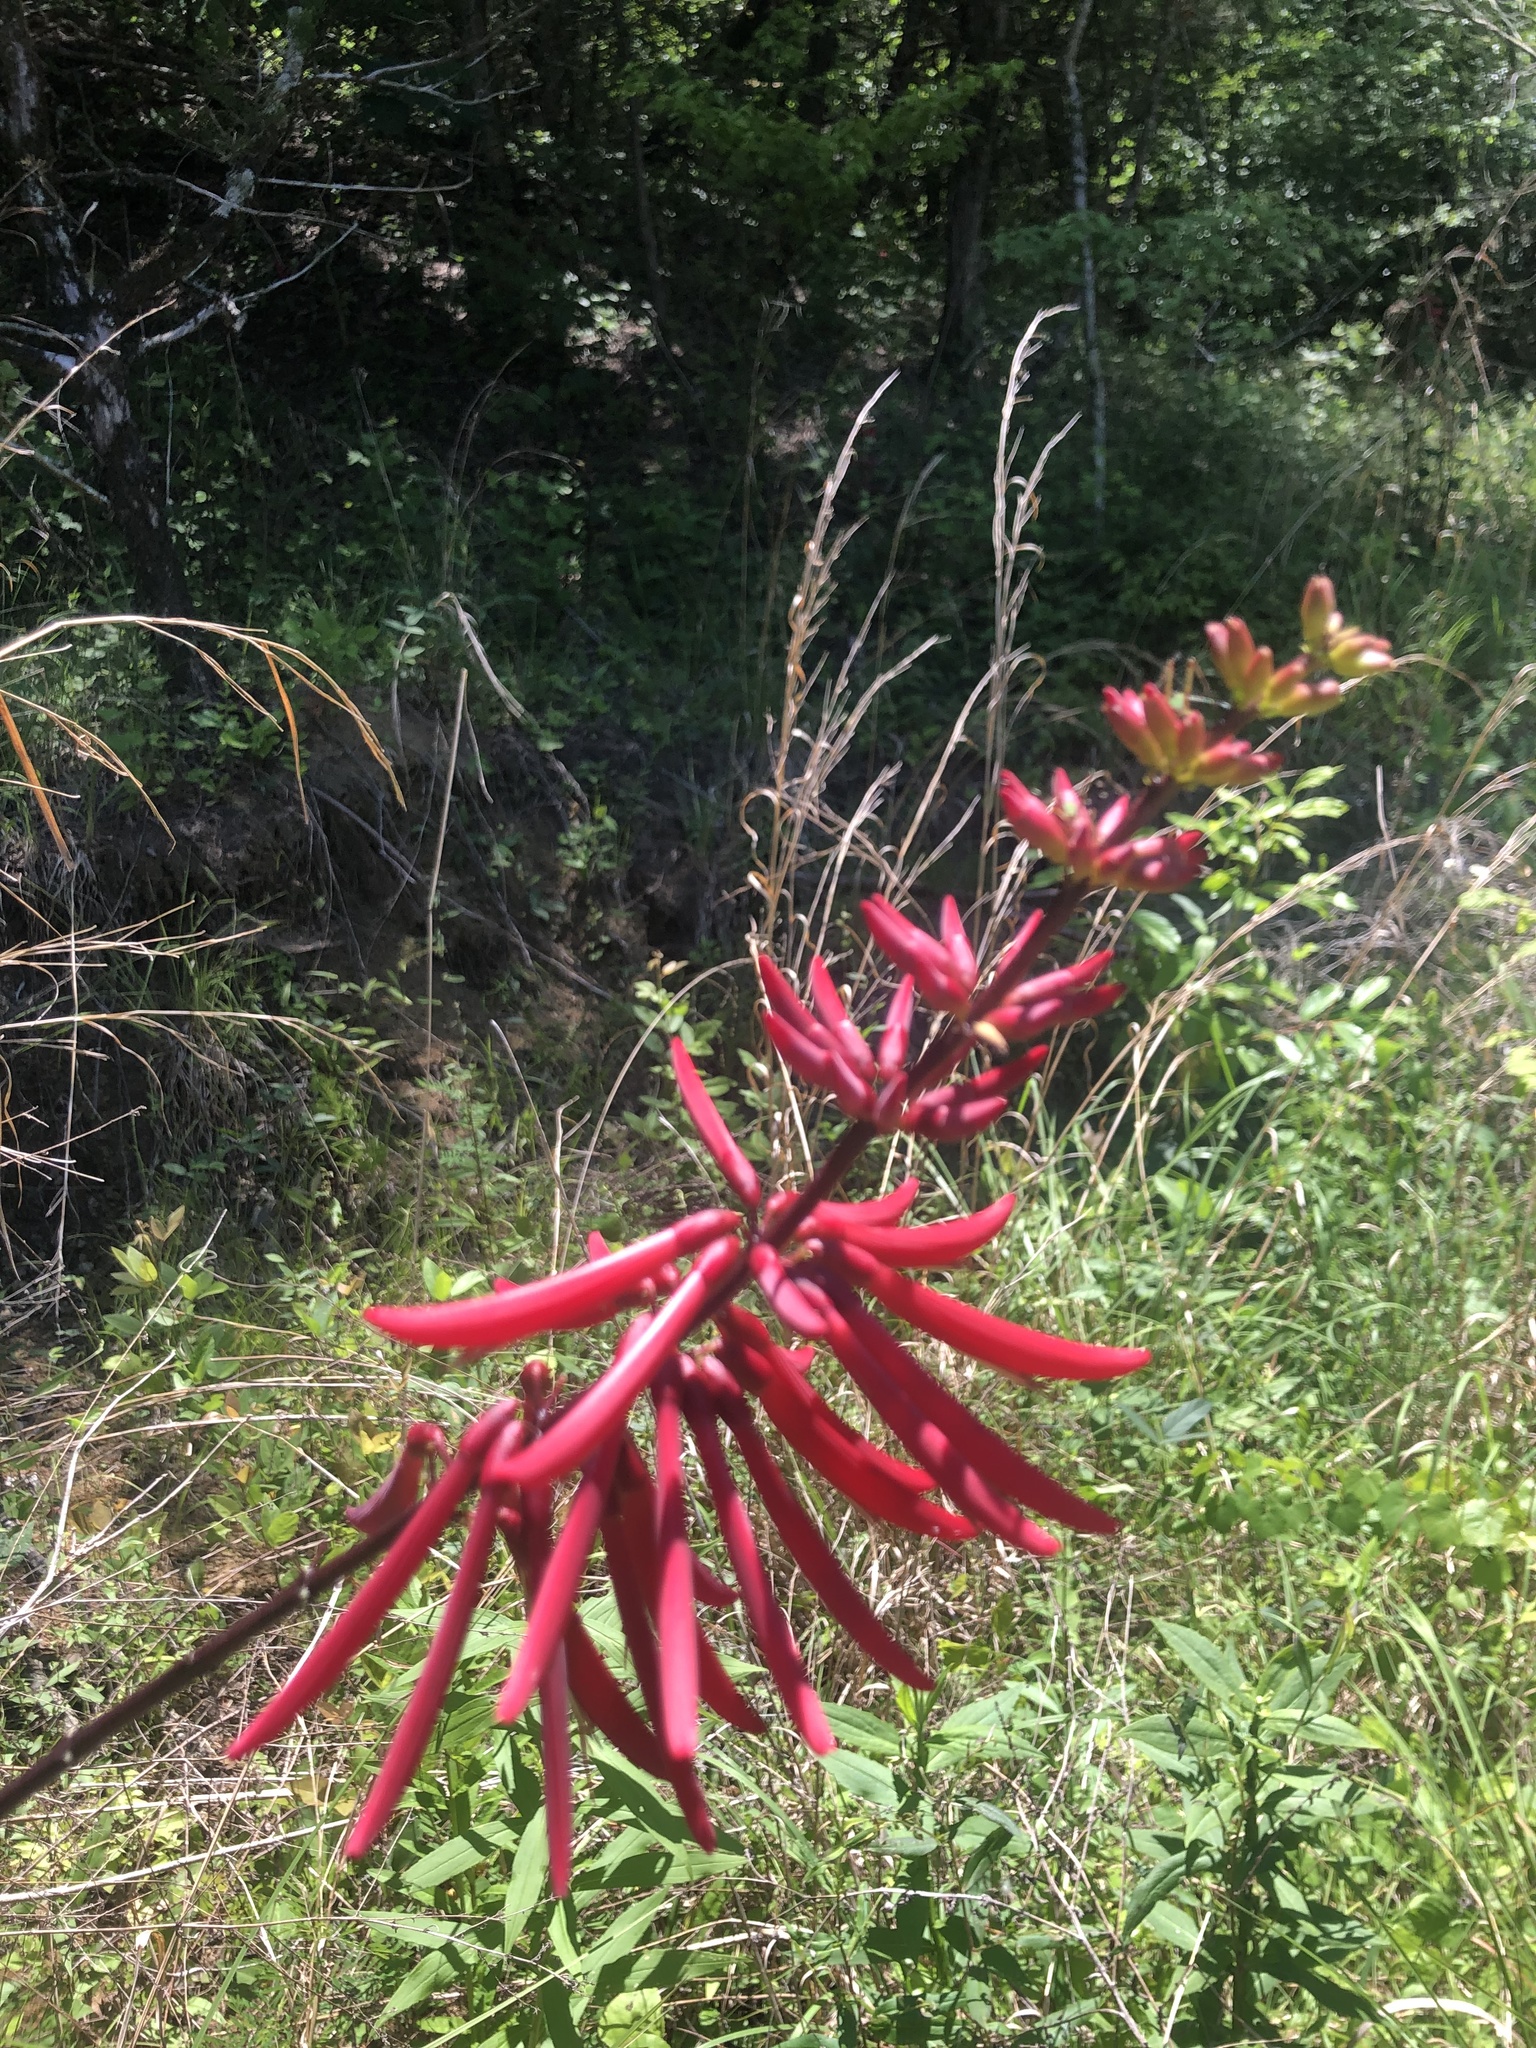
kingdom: Plantae
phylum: Tracheophyta
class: Magnoliopsida
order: Fabales
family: Fabaceae
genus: Erythrina
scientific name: Erythrina herbacea
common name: Coral-bean
